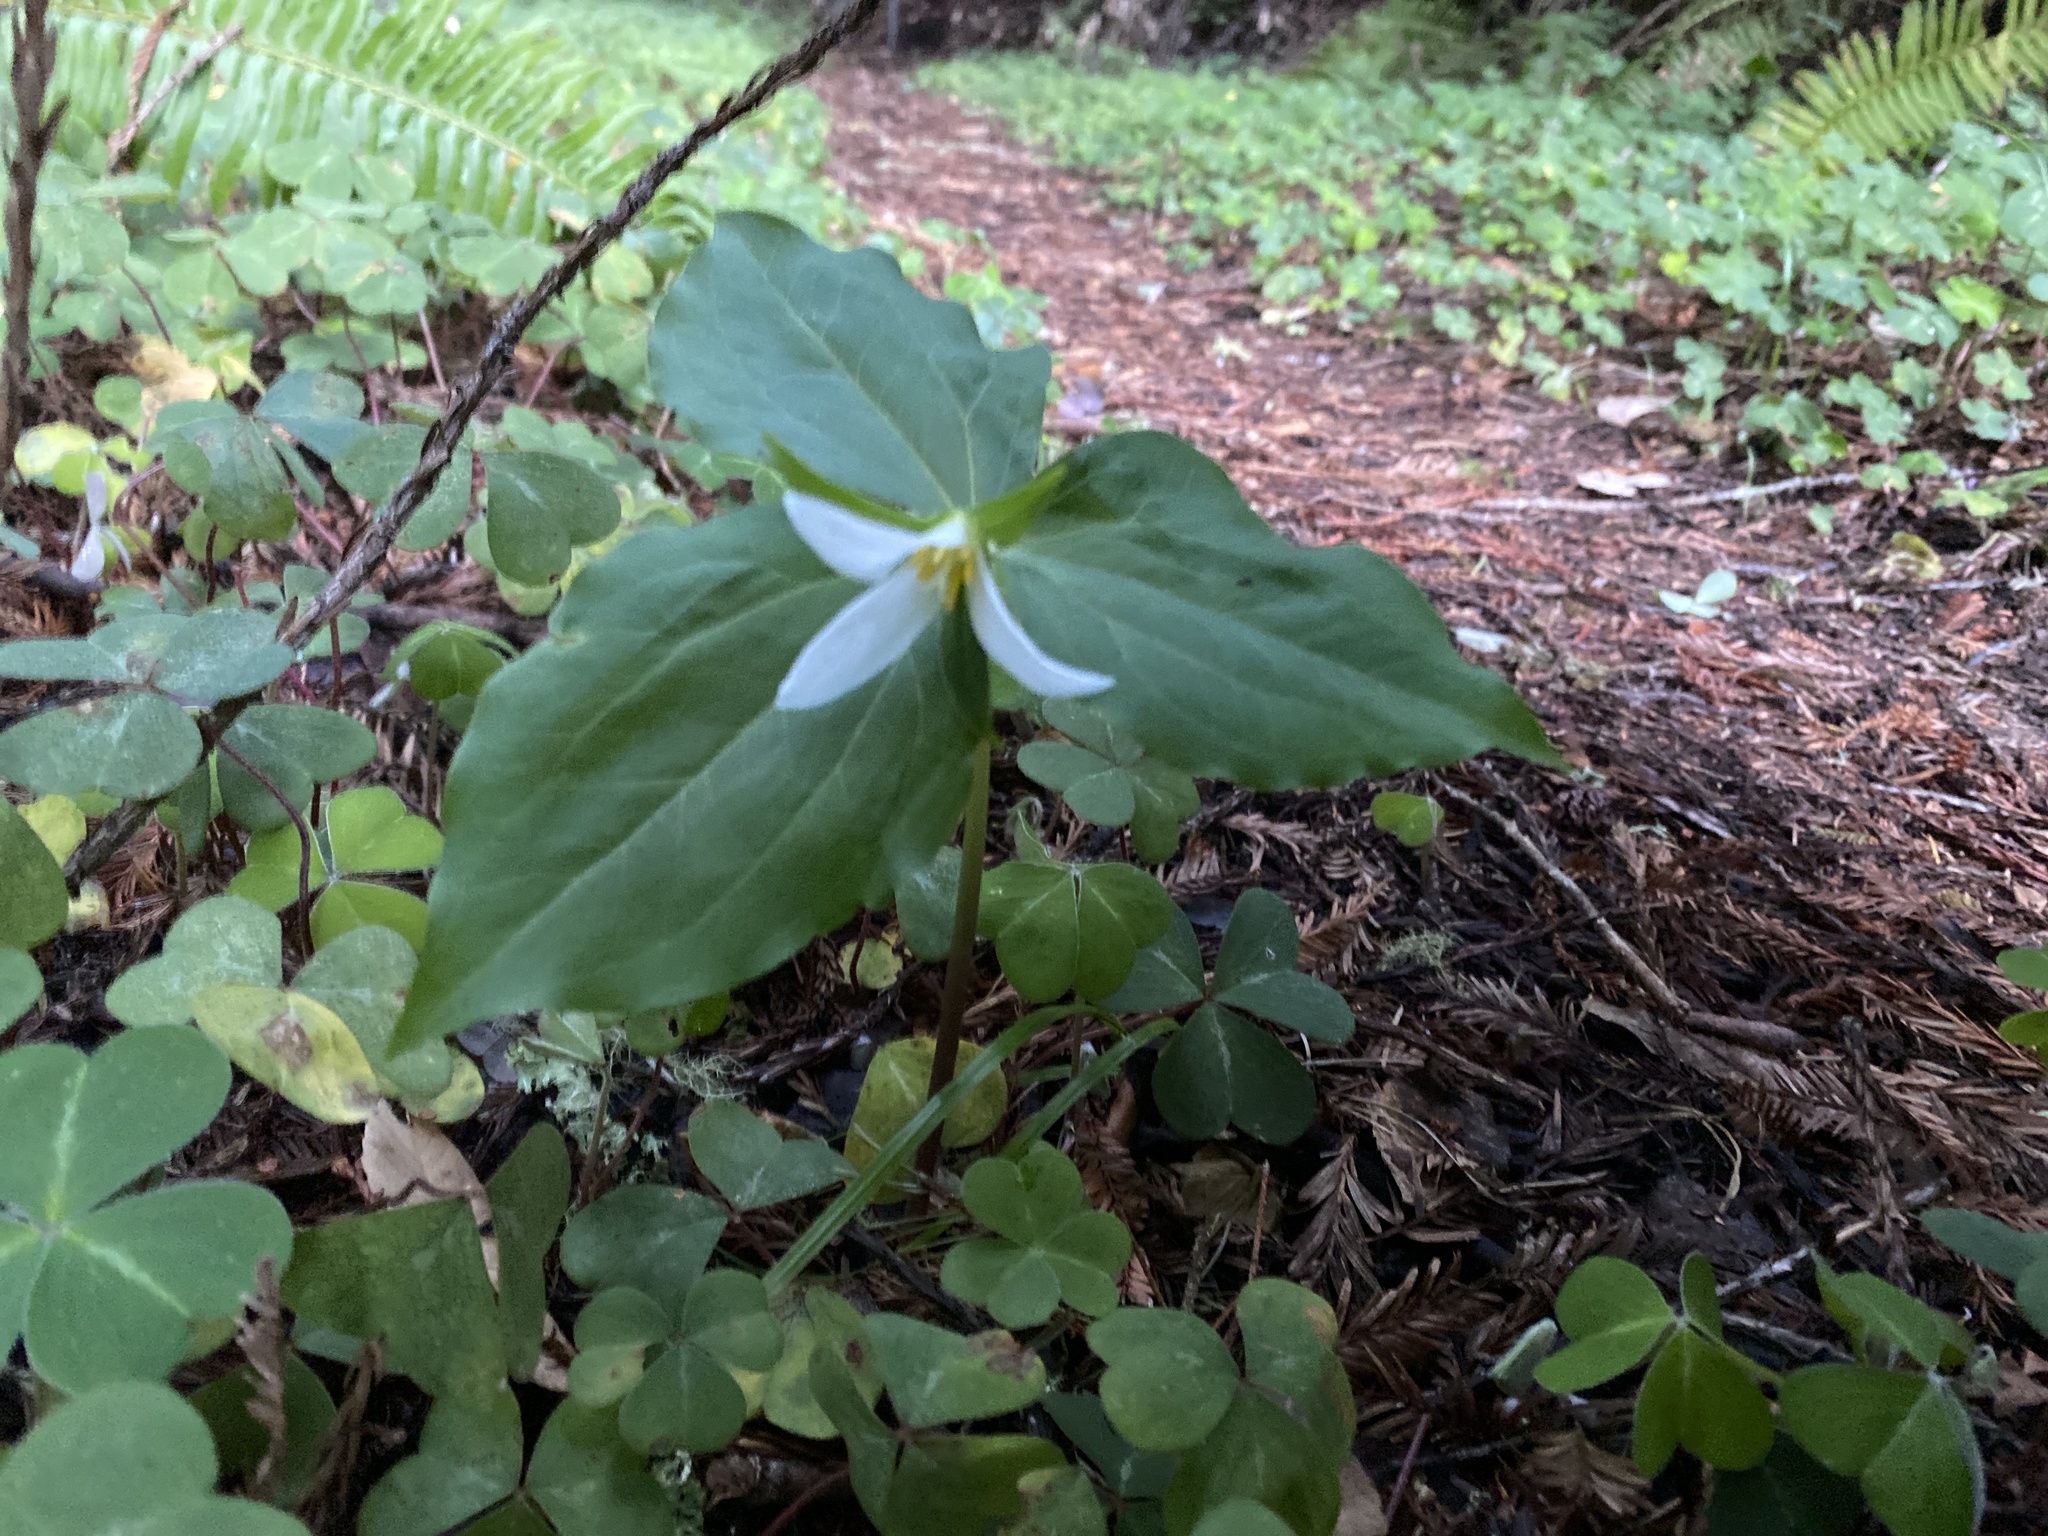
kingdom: Plantae
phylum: Tracheophyta
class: Liliopsida
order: Liliales
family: Melanthiaceae
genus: Trillium
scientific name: Trillium ovatum
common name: Pacific trillium
